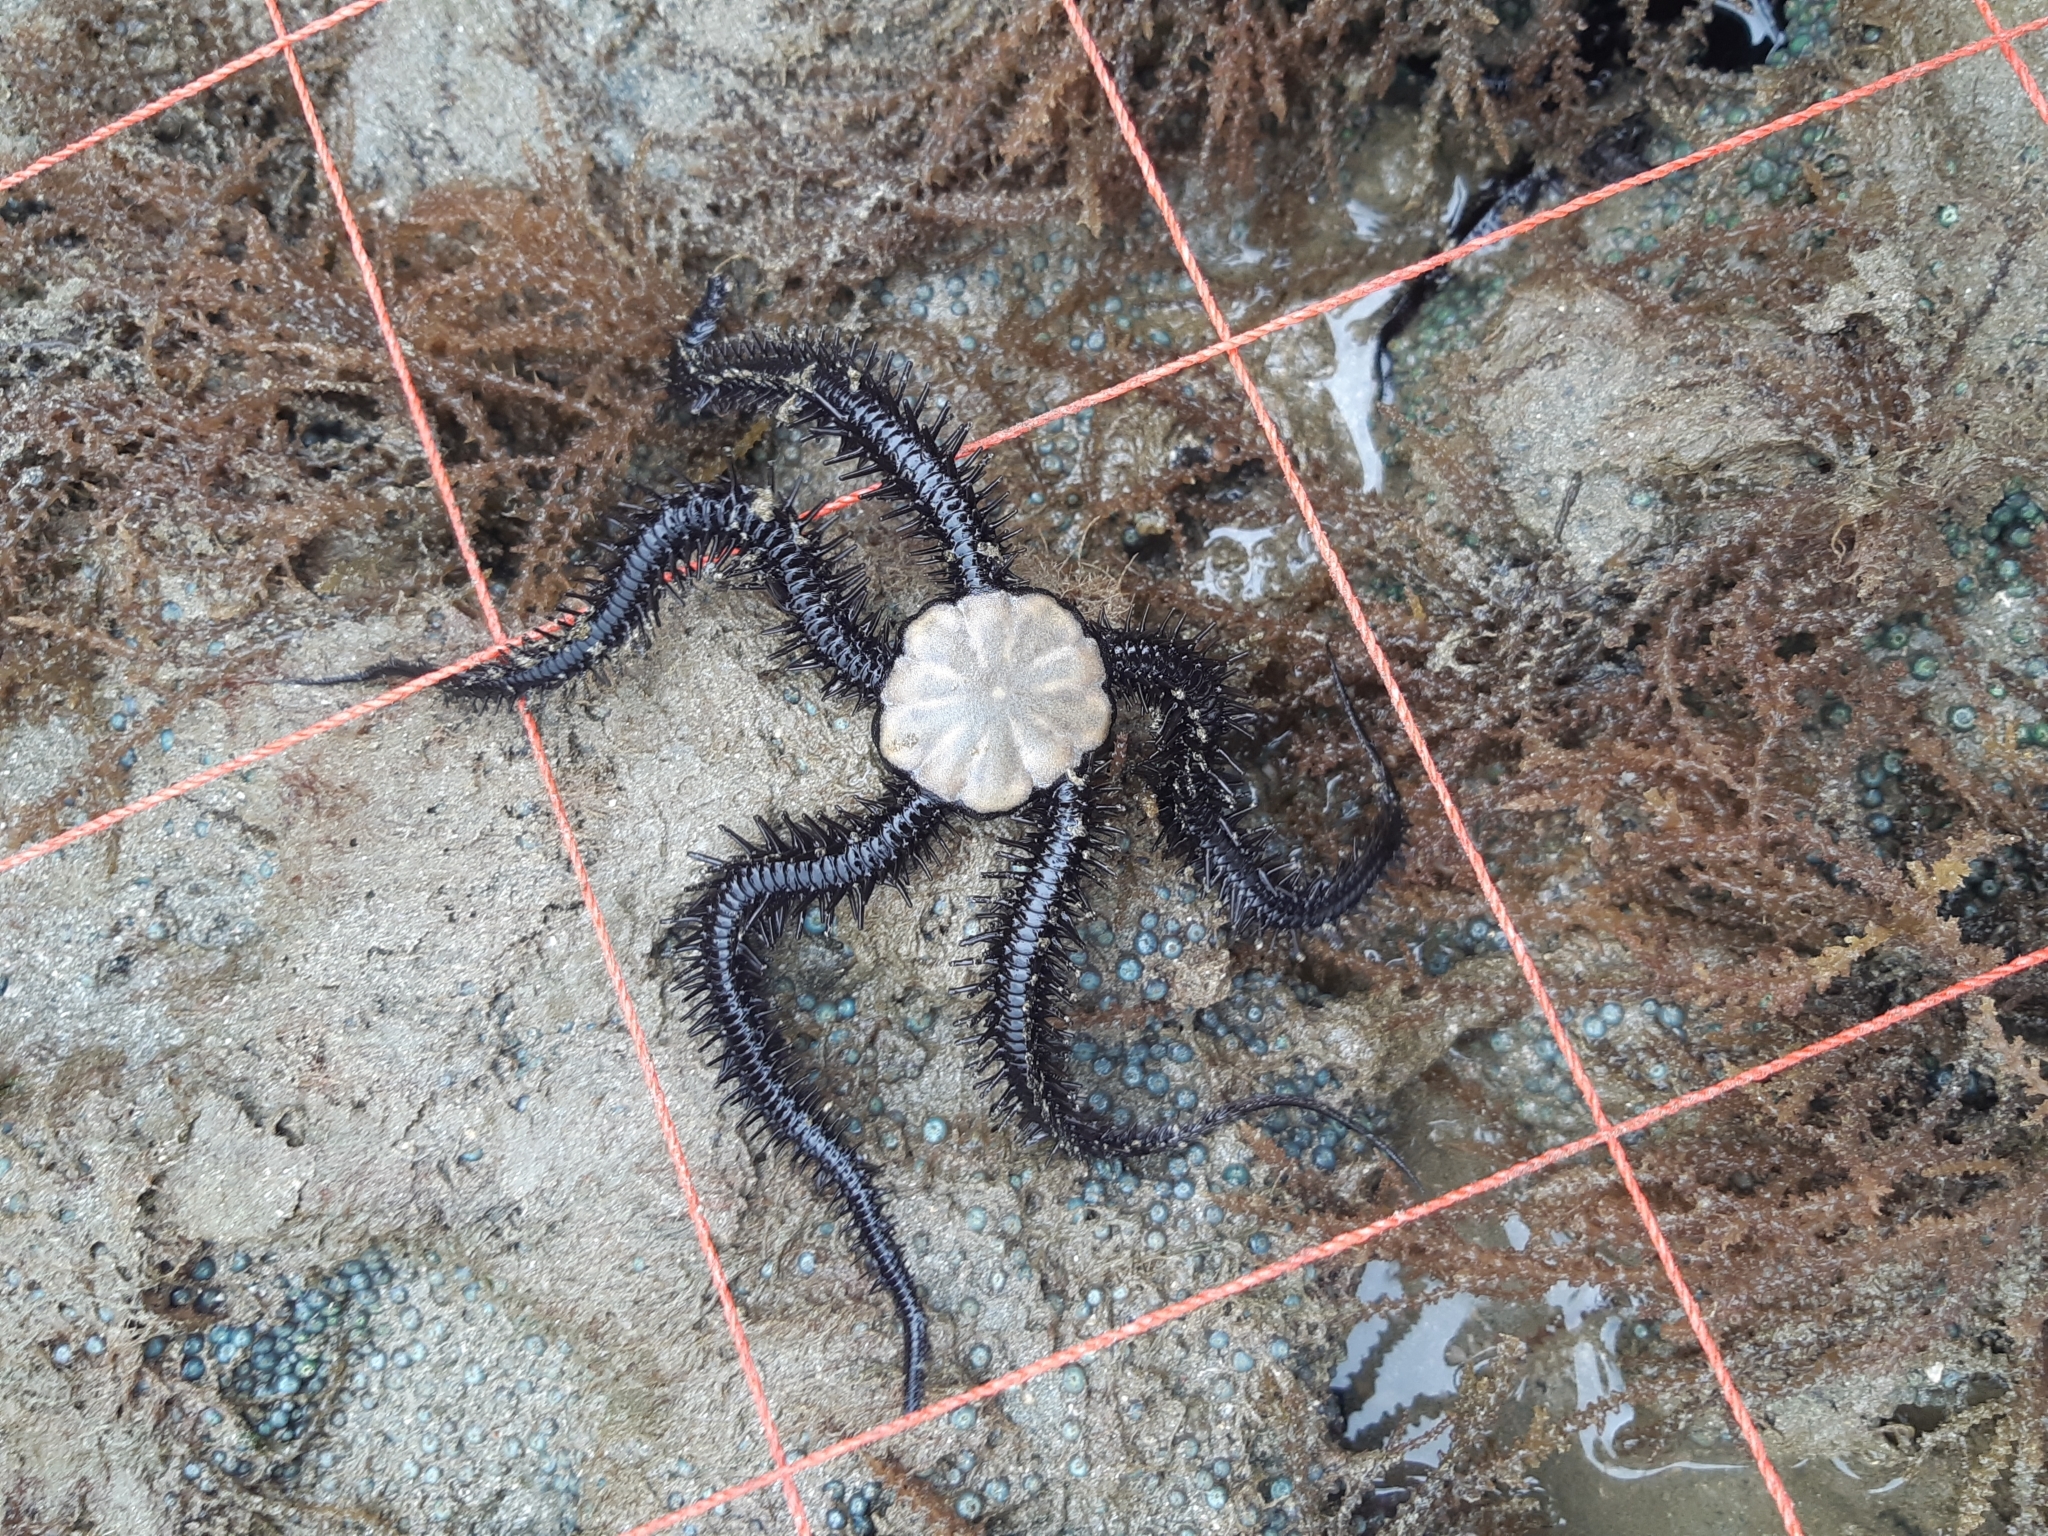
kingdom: Animalia
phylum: Echinodermata
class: Ophiuroidea
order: Ophiacanthida
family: Ophiocomidae
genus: Ophiocoma
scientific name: Ophiocoma aethiops
